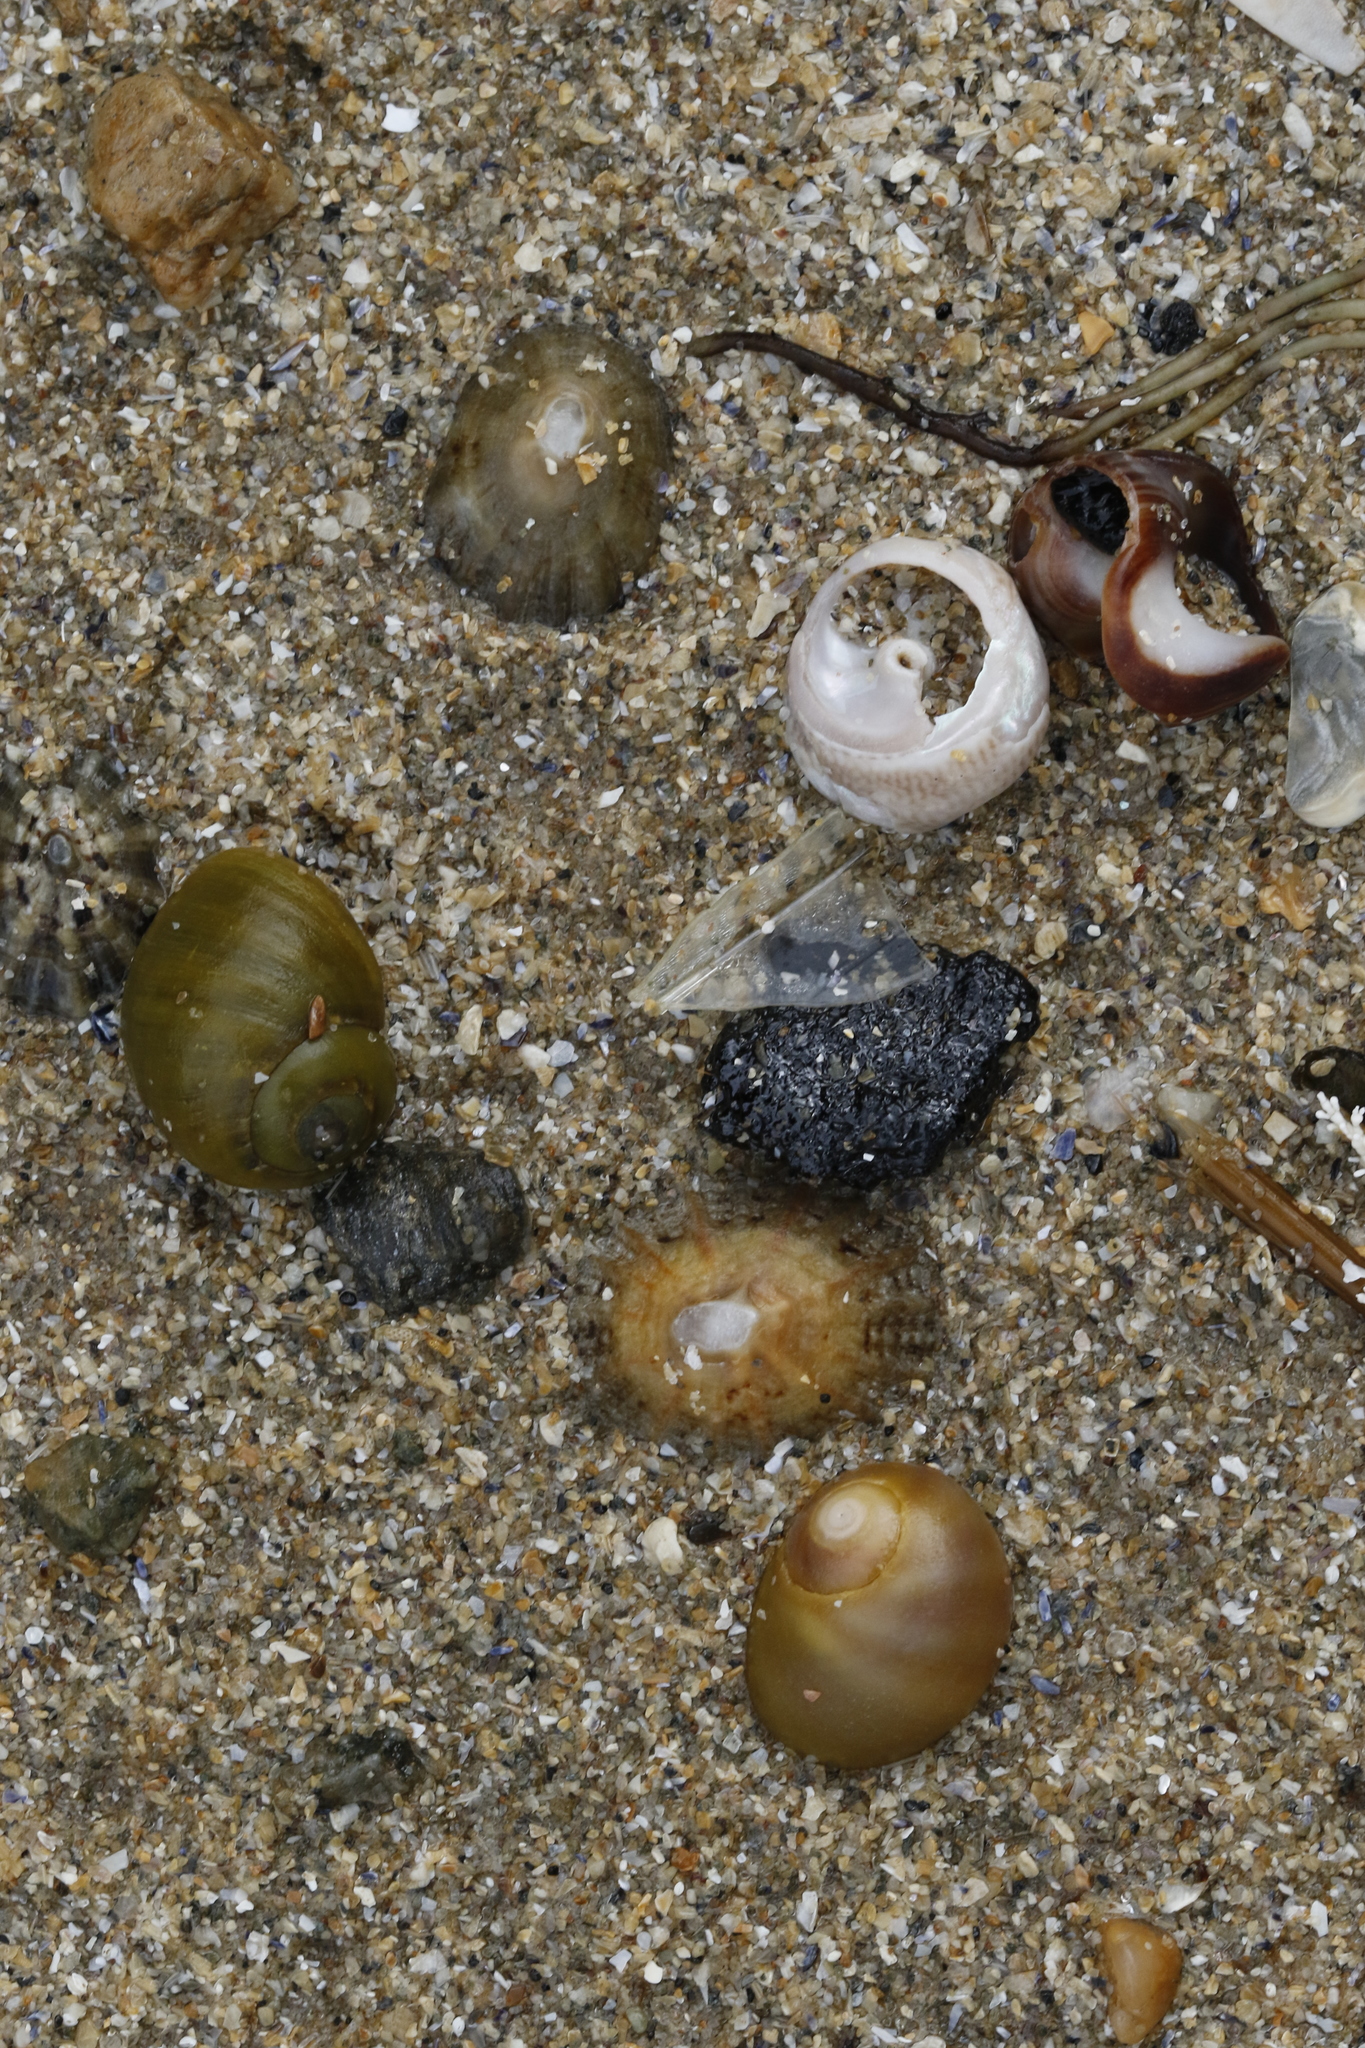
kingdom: Animalia
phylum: Mollusca
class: Gastropoda
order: Littorinimorpha
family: Littorinidae
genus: Littorina
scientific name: Littorina obtusata
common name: Flat periwinkle
